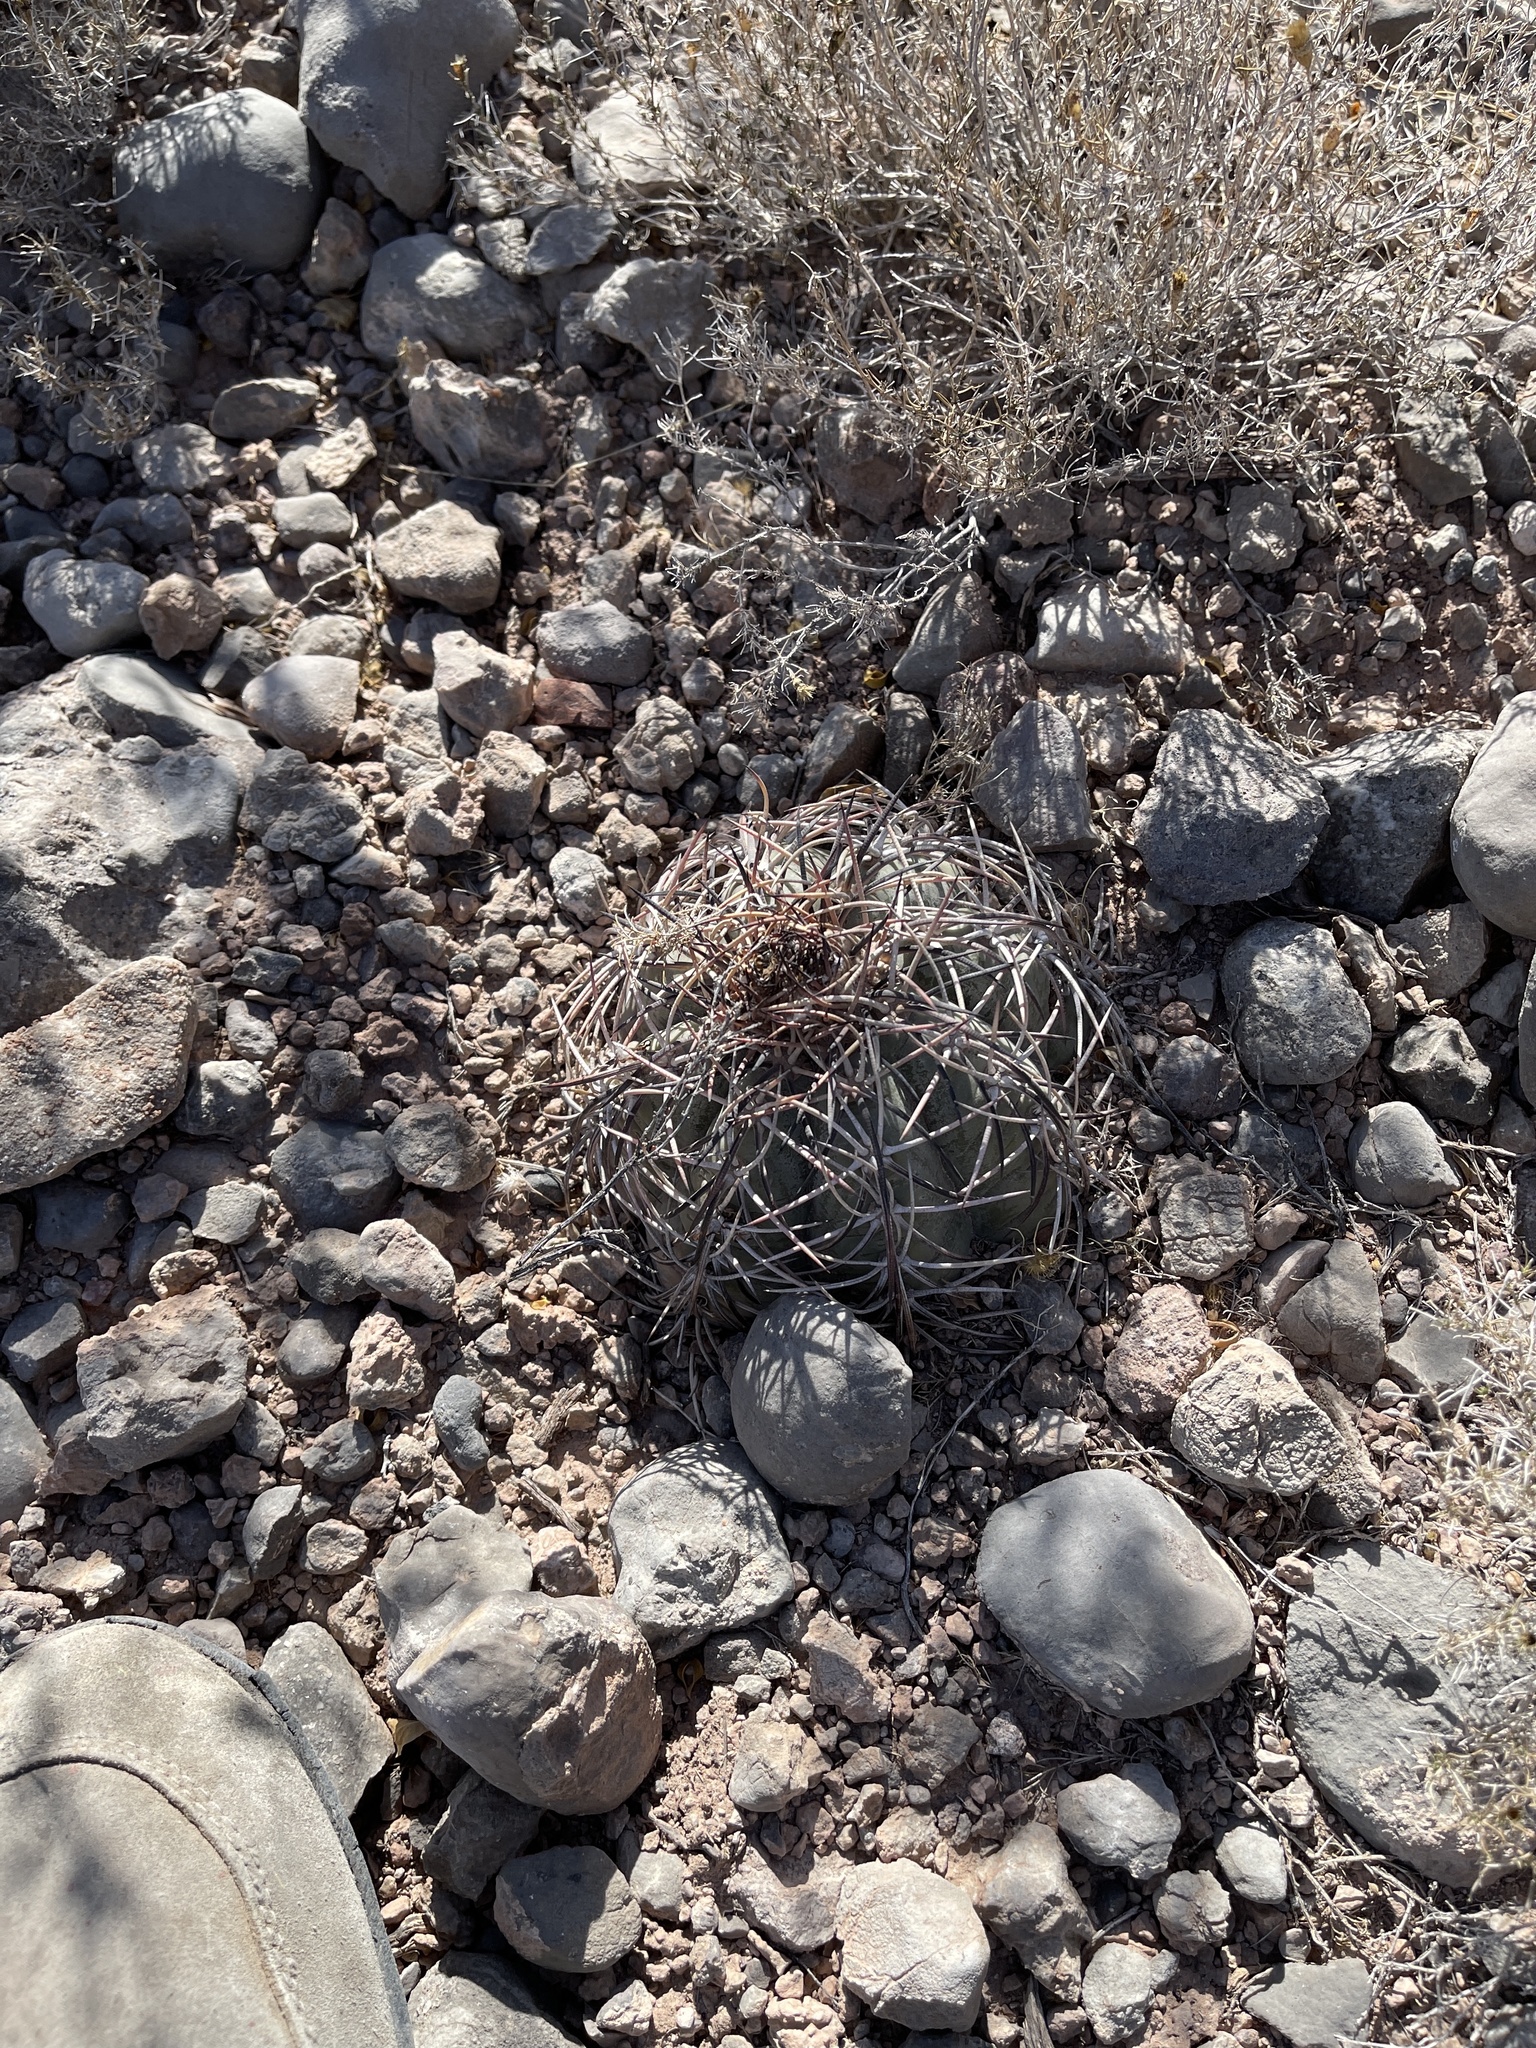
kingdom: Plantae
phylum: Tracheophyta
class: Magnoliopsida
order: Caryophyllales
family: Cactaceae
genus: Echinocactus
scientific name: Echinocactus horizonthalonius
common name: Devilshead
